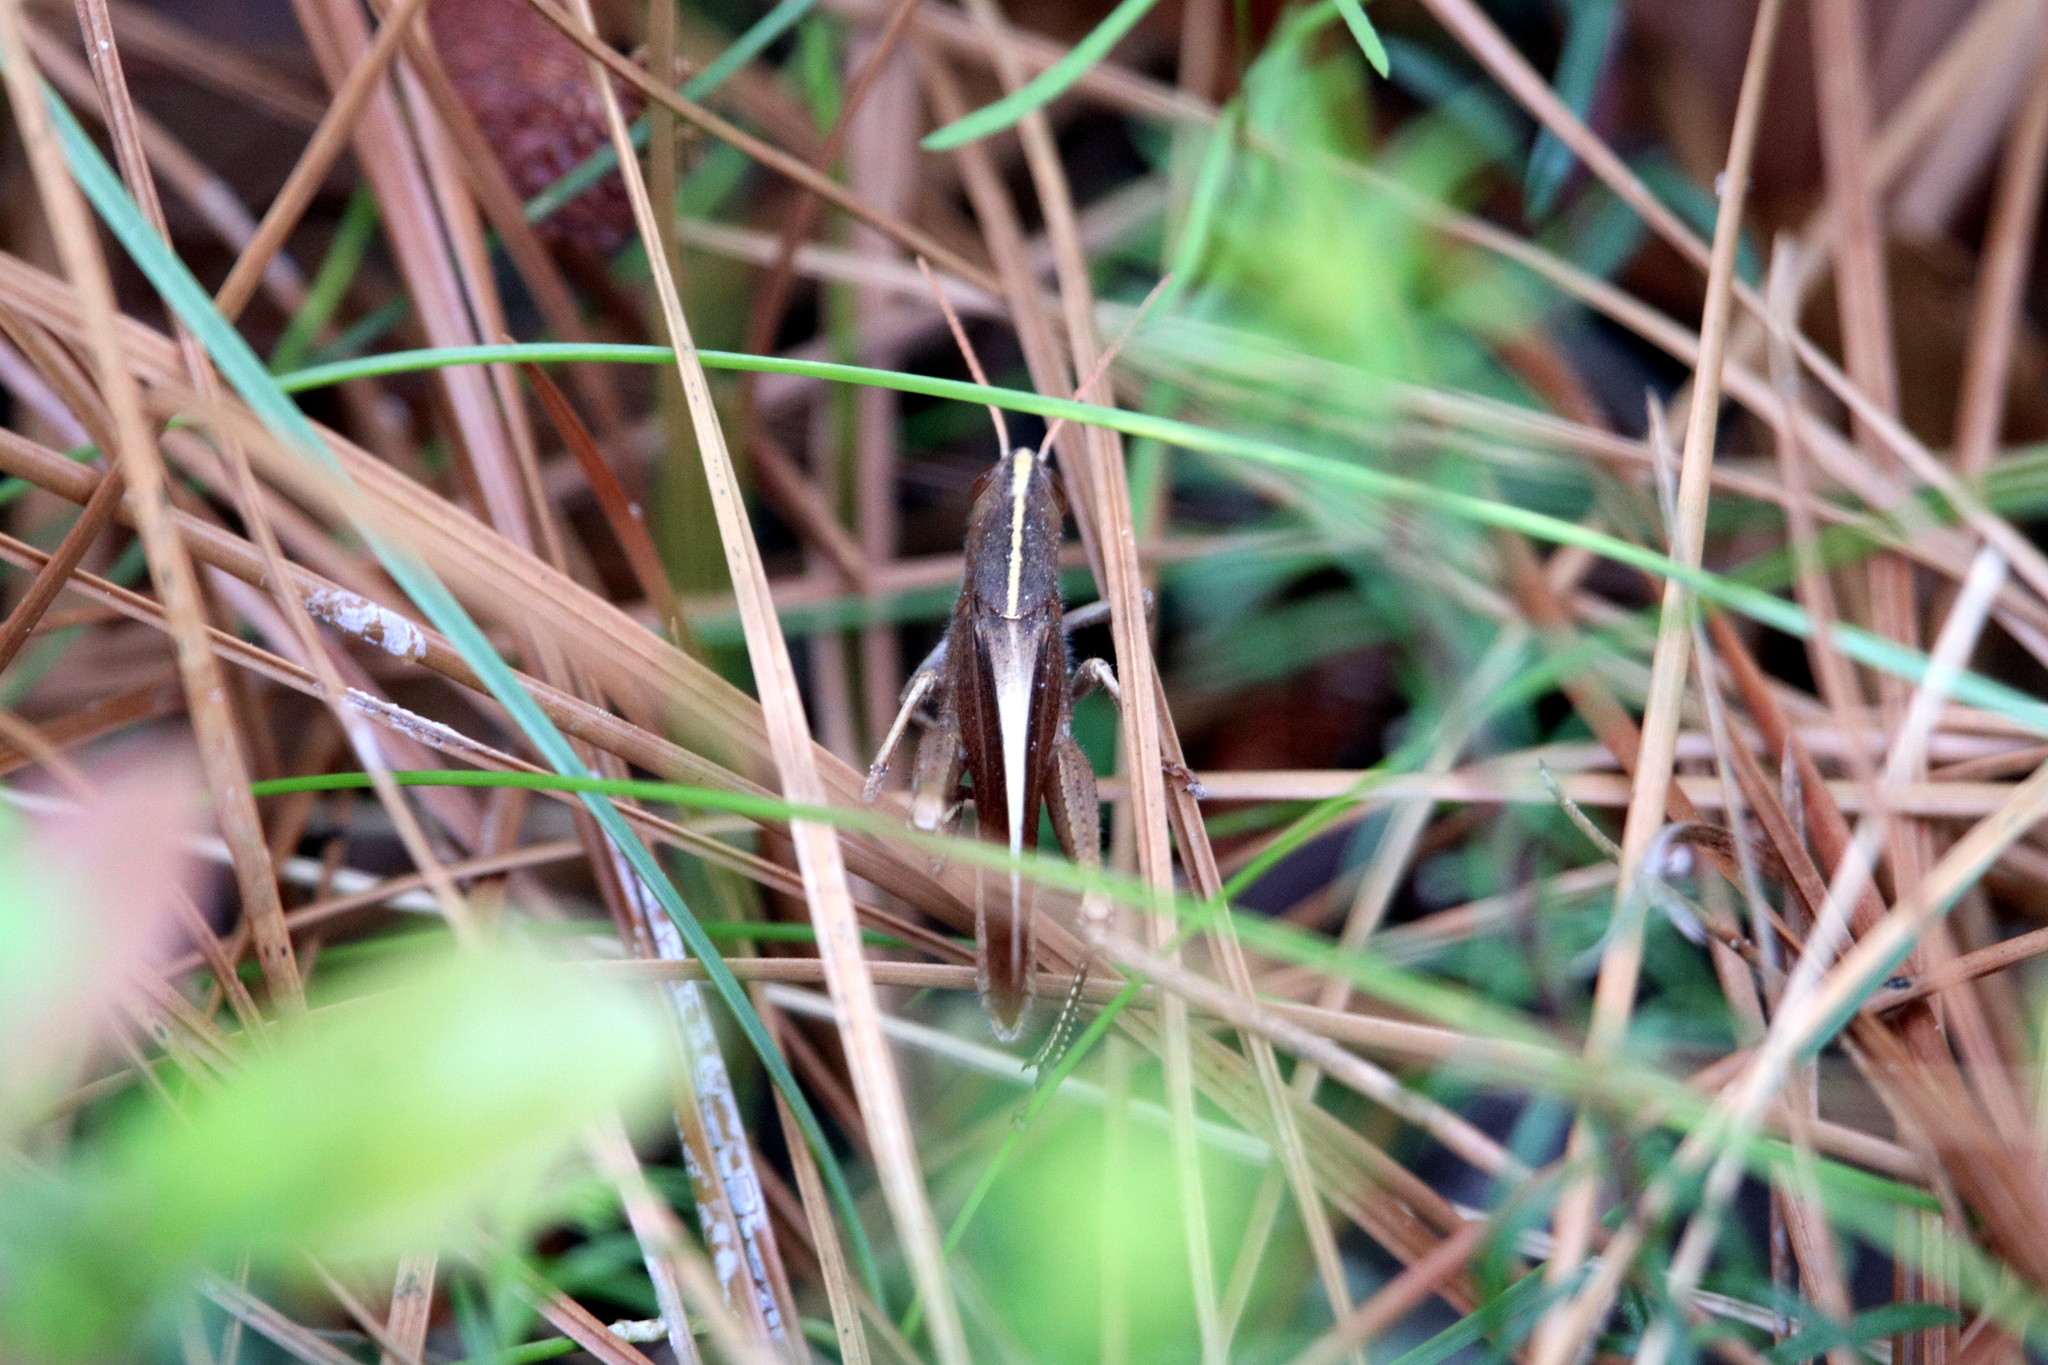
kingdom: Animalia
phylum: Arthropoda
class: Insecta
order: Orthoptera
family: Acrididae
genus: Schistocerca
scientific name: Schistocerca damnifica
